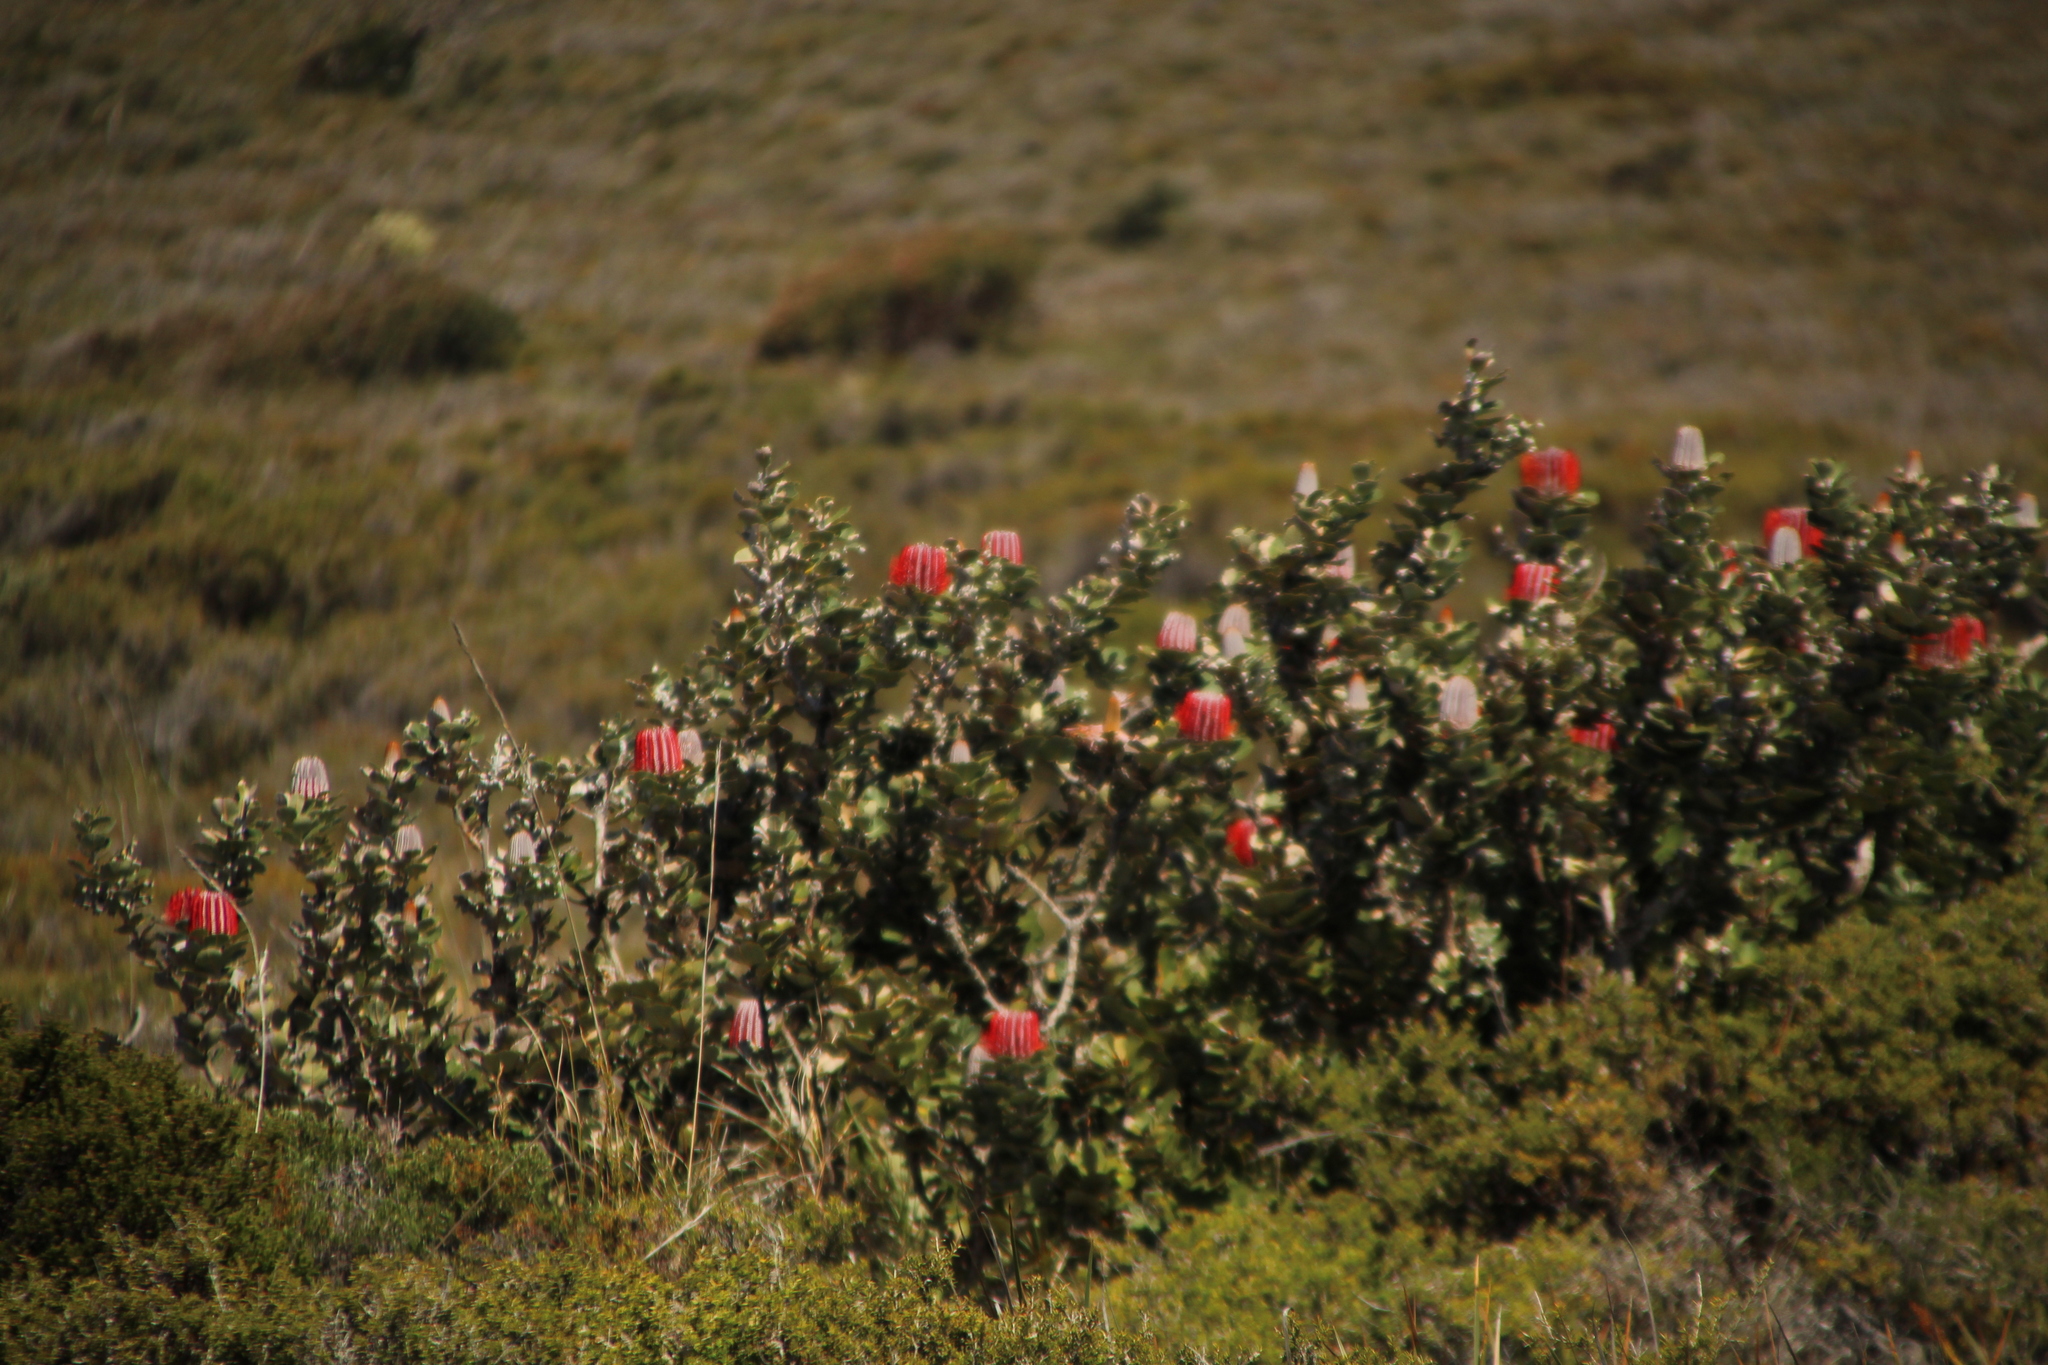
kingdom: Plantae
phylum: Tracheophyta
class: Magnoliopsida
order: Proteales
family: Proteaceae
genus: Banksia
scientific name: Banksia coccinea
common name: Scarlet banksia
